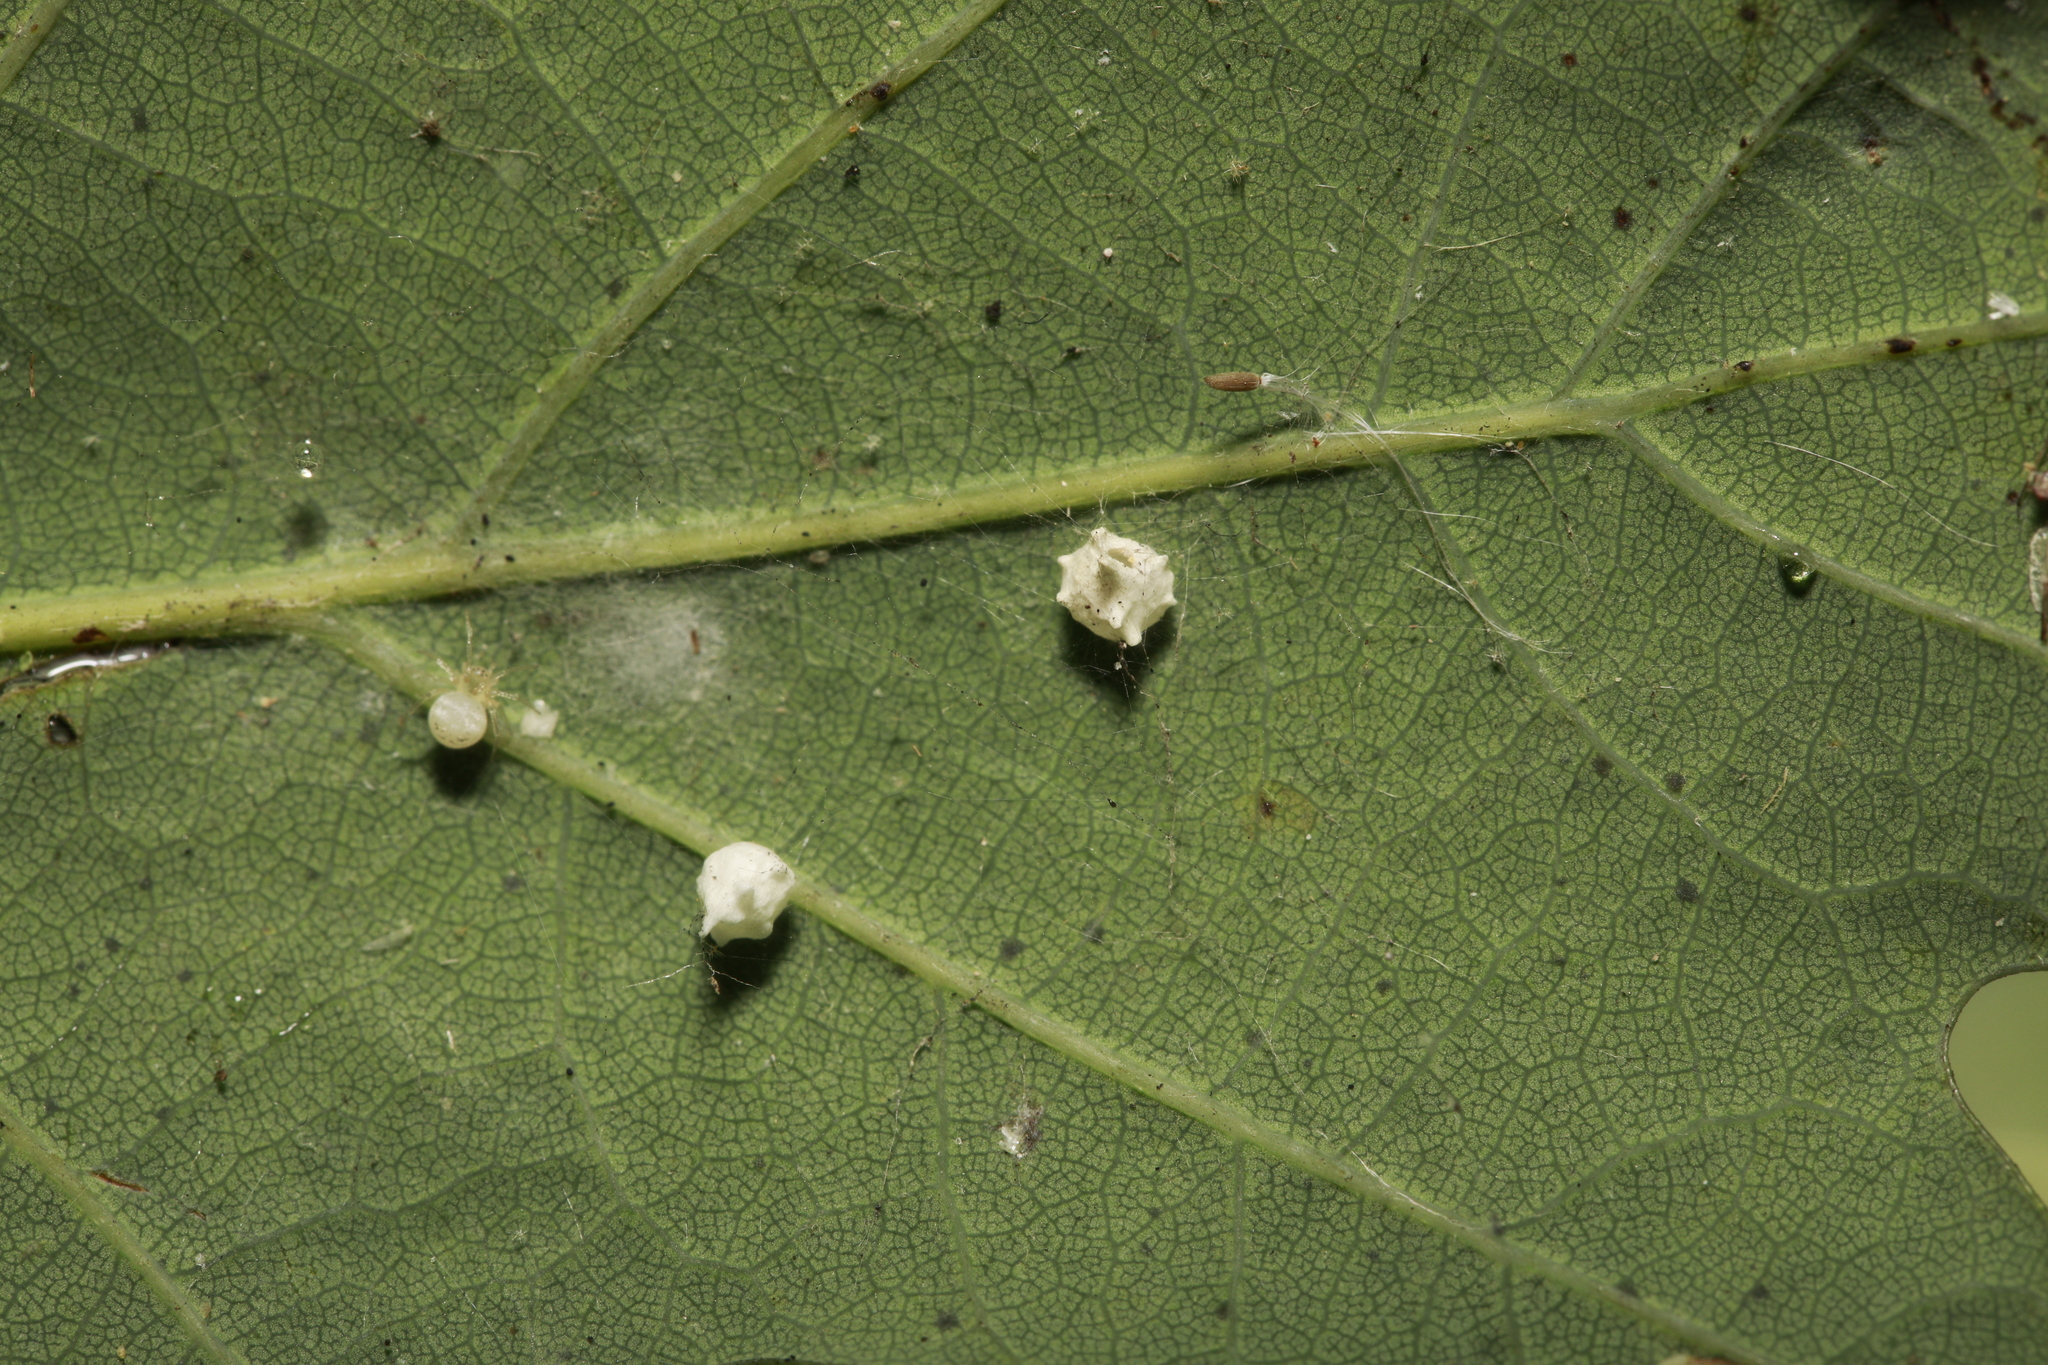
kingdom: Animalia
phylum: Arthropoda
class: Arachnida
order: Araneae
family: Theridiidae
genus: Paidiscura
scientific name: Paidiscura pallens
